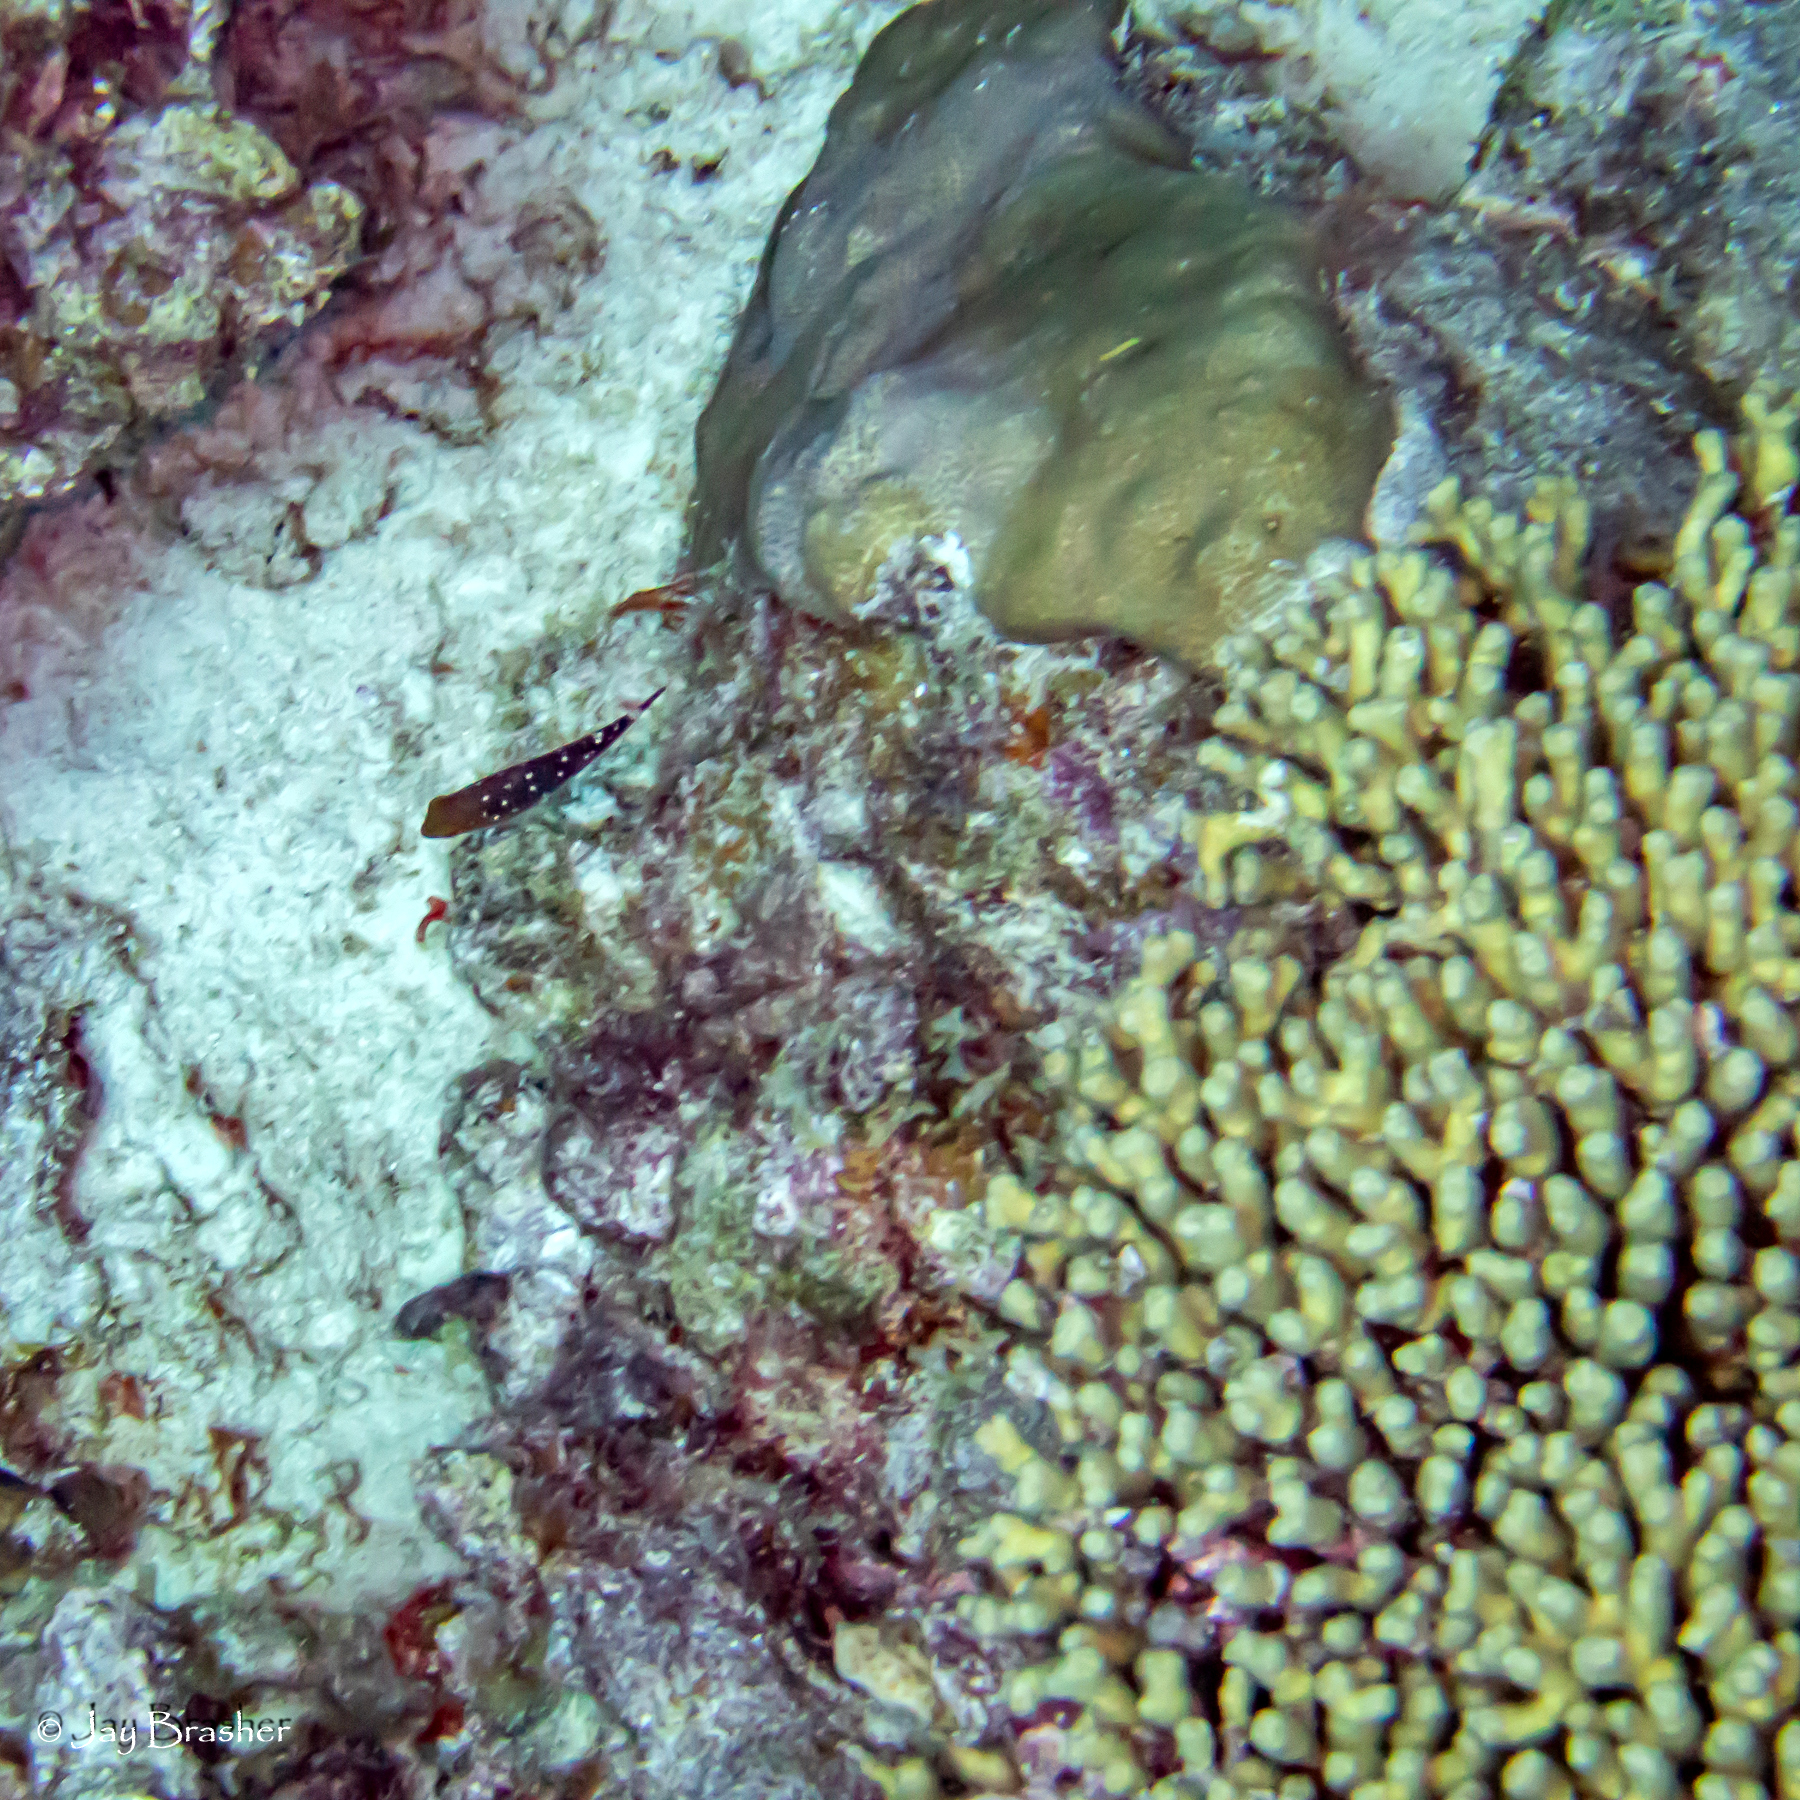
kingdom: Animalia
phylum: Cnidaria
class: Anthozoa
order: Scleractinia
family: Pocilloporidae
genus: Madracis
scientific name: Madracis auretenra
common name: Yellow pencil coral
